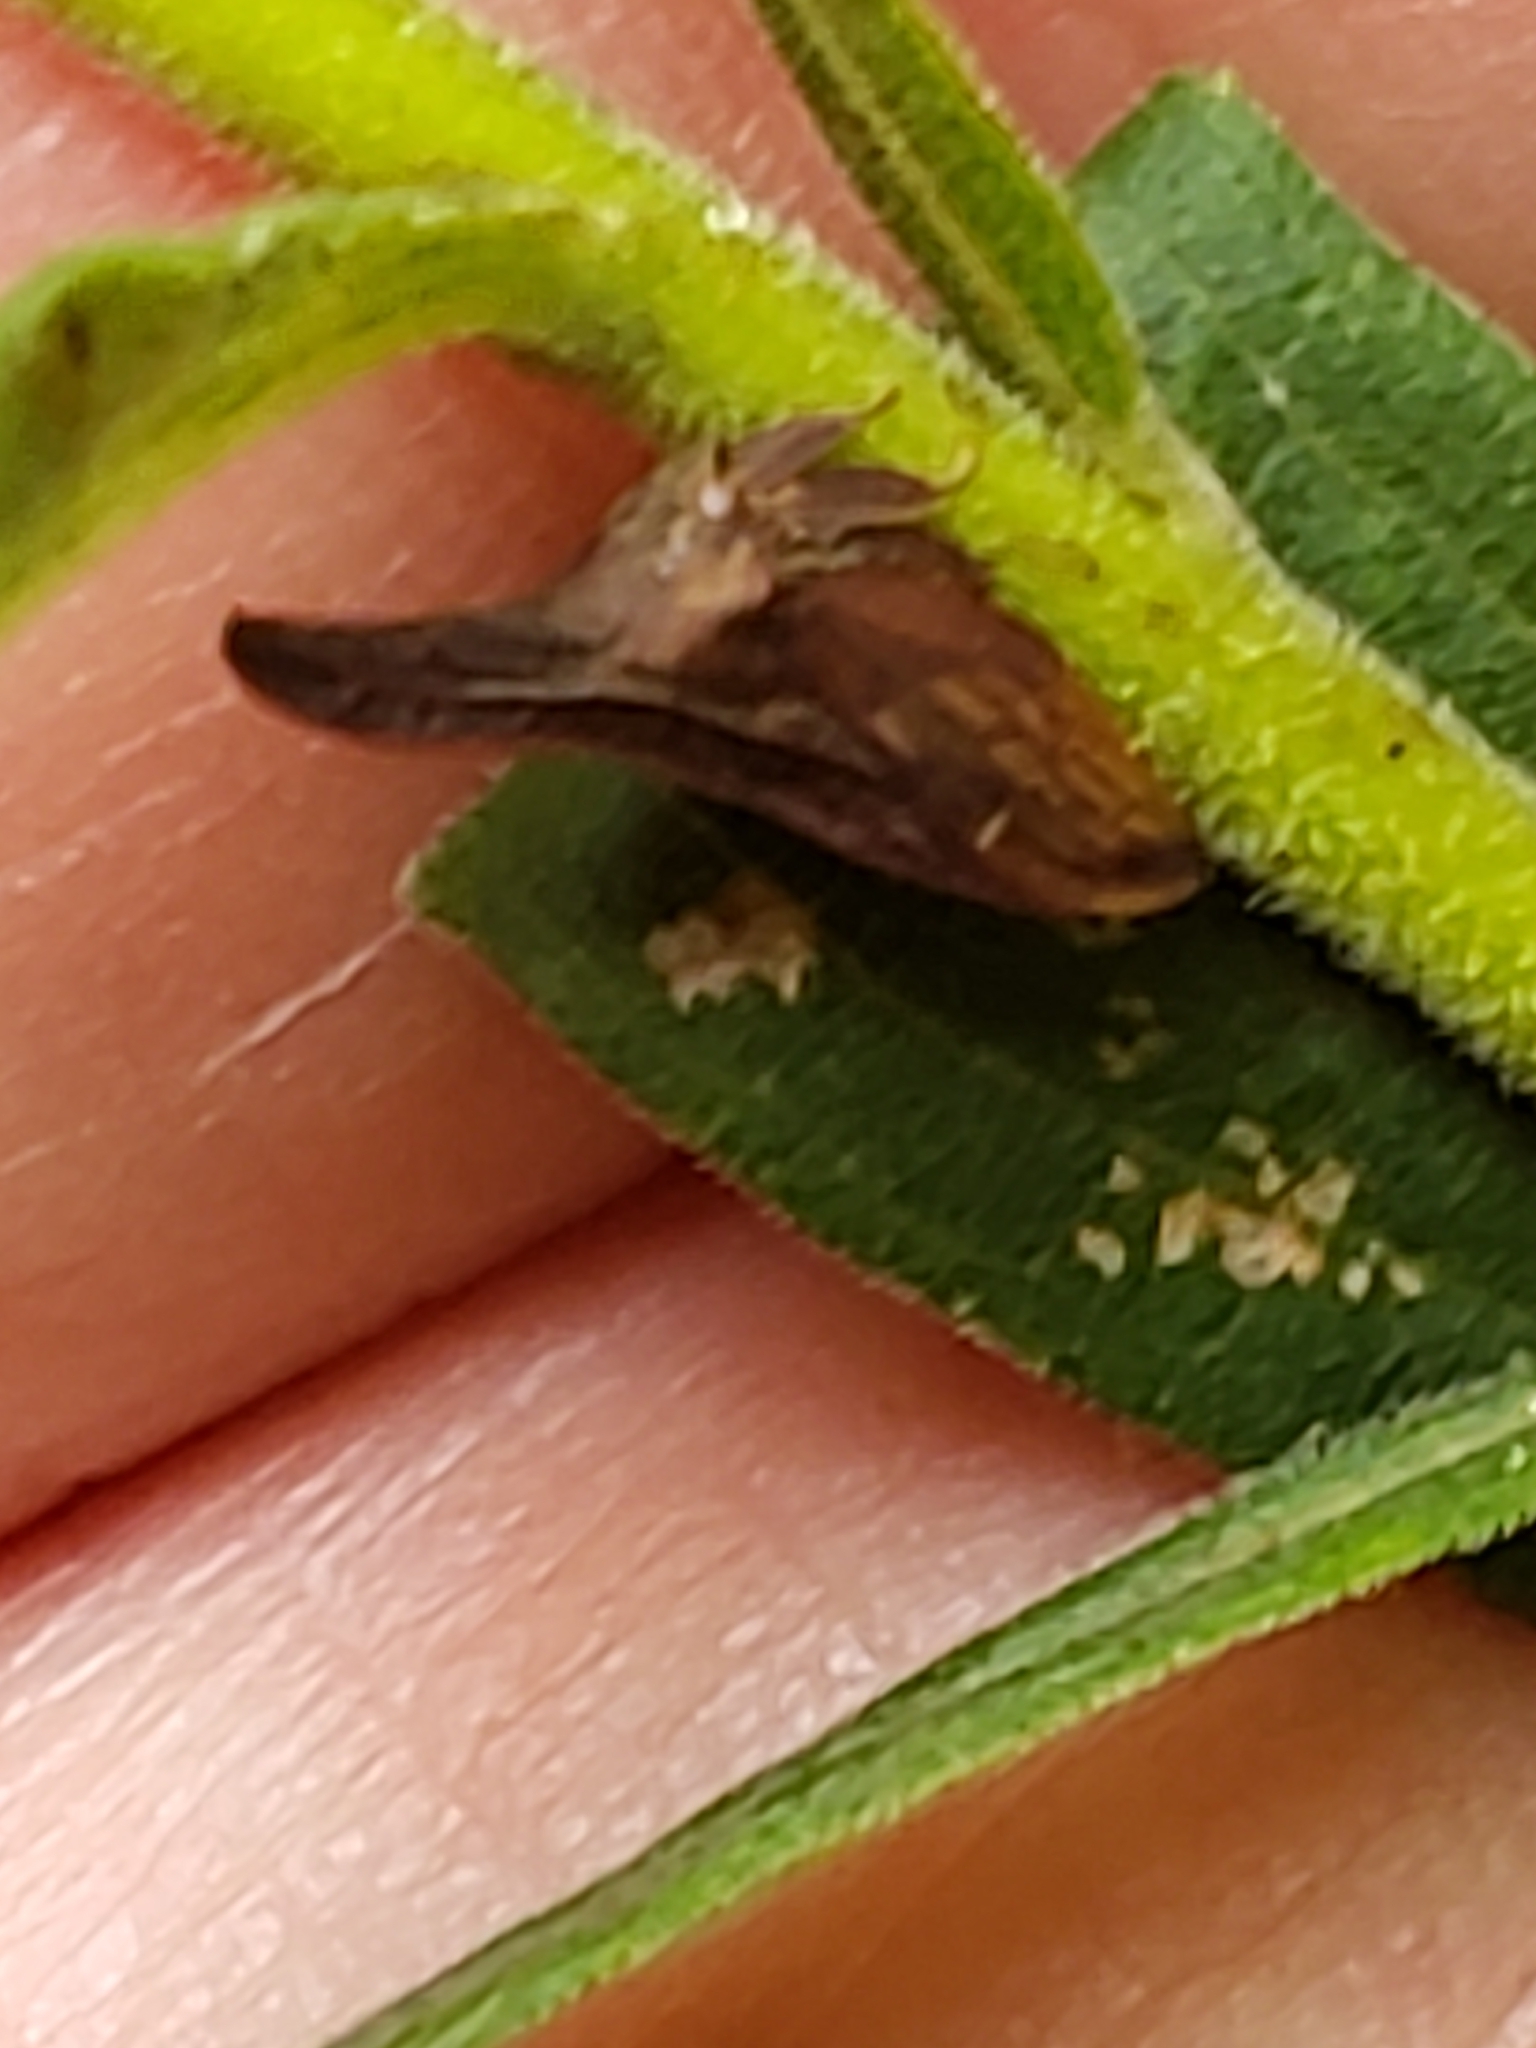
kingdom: Animalia
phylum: Arthropoda
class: Insecta
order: Hemiptera
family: Membracidae
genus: Enchenopa
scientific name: Enchenopa latipes
